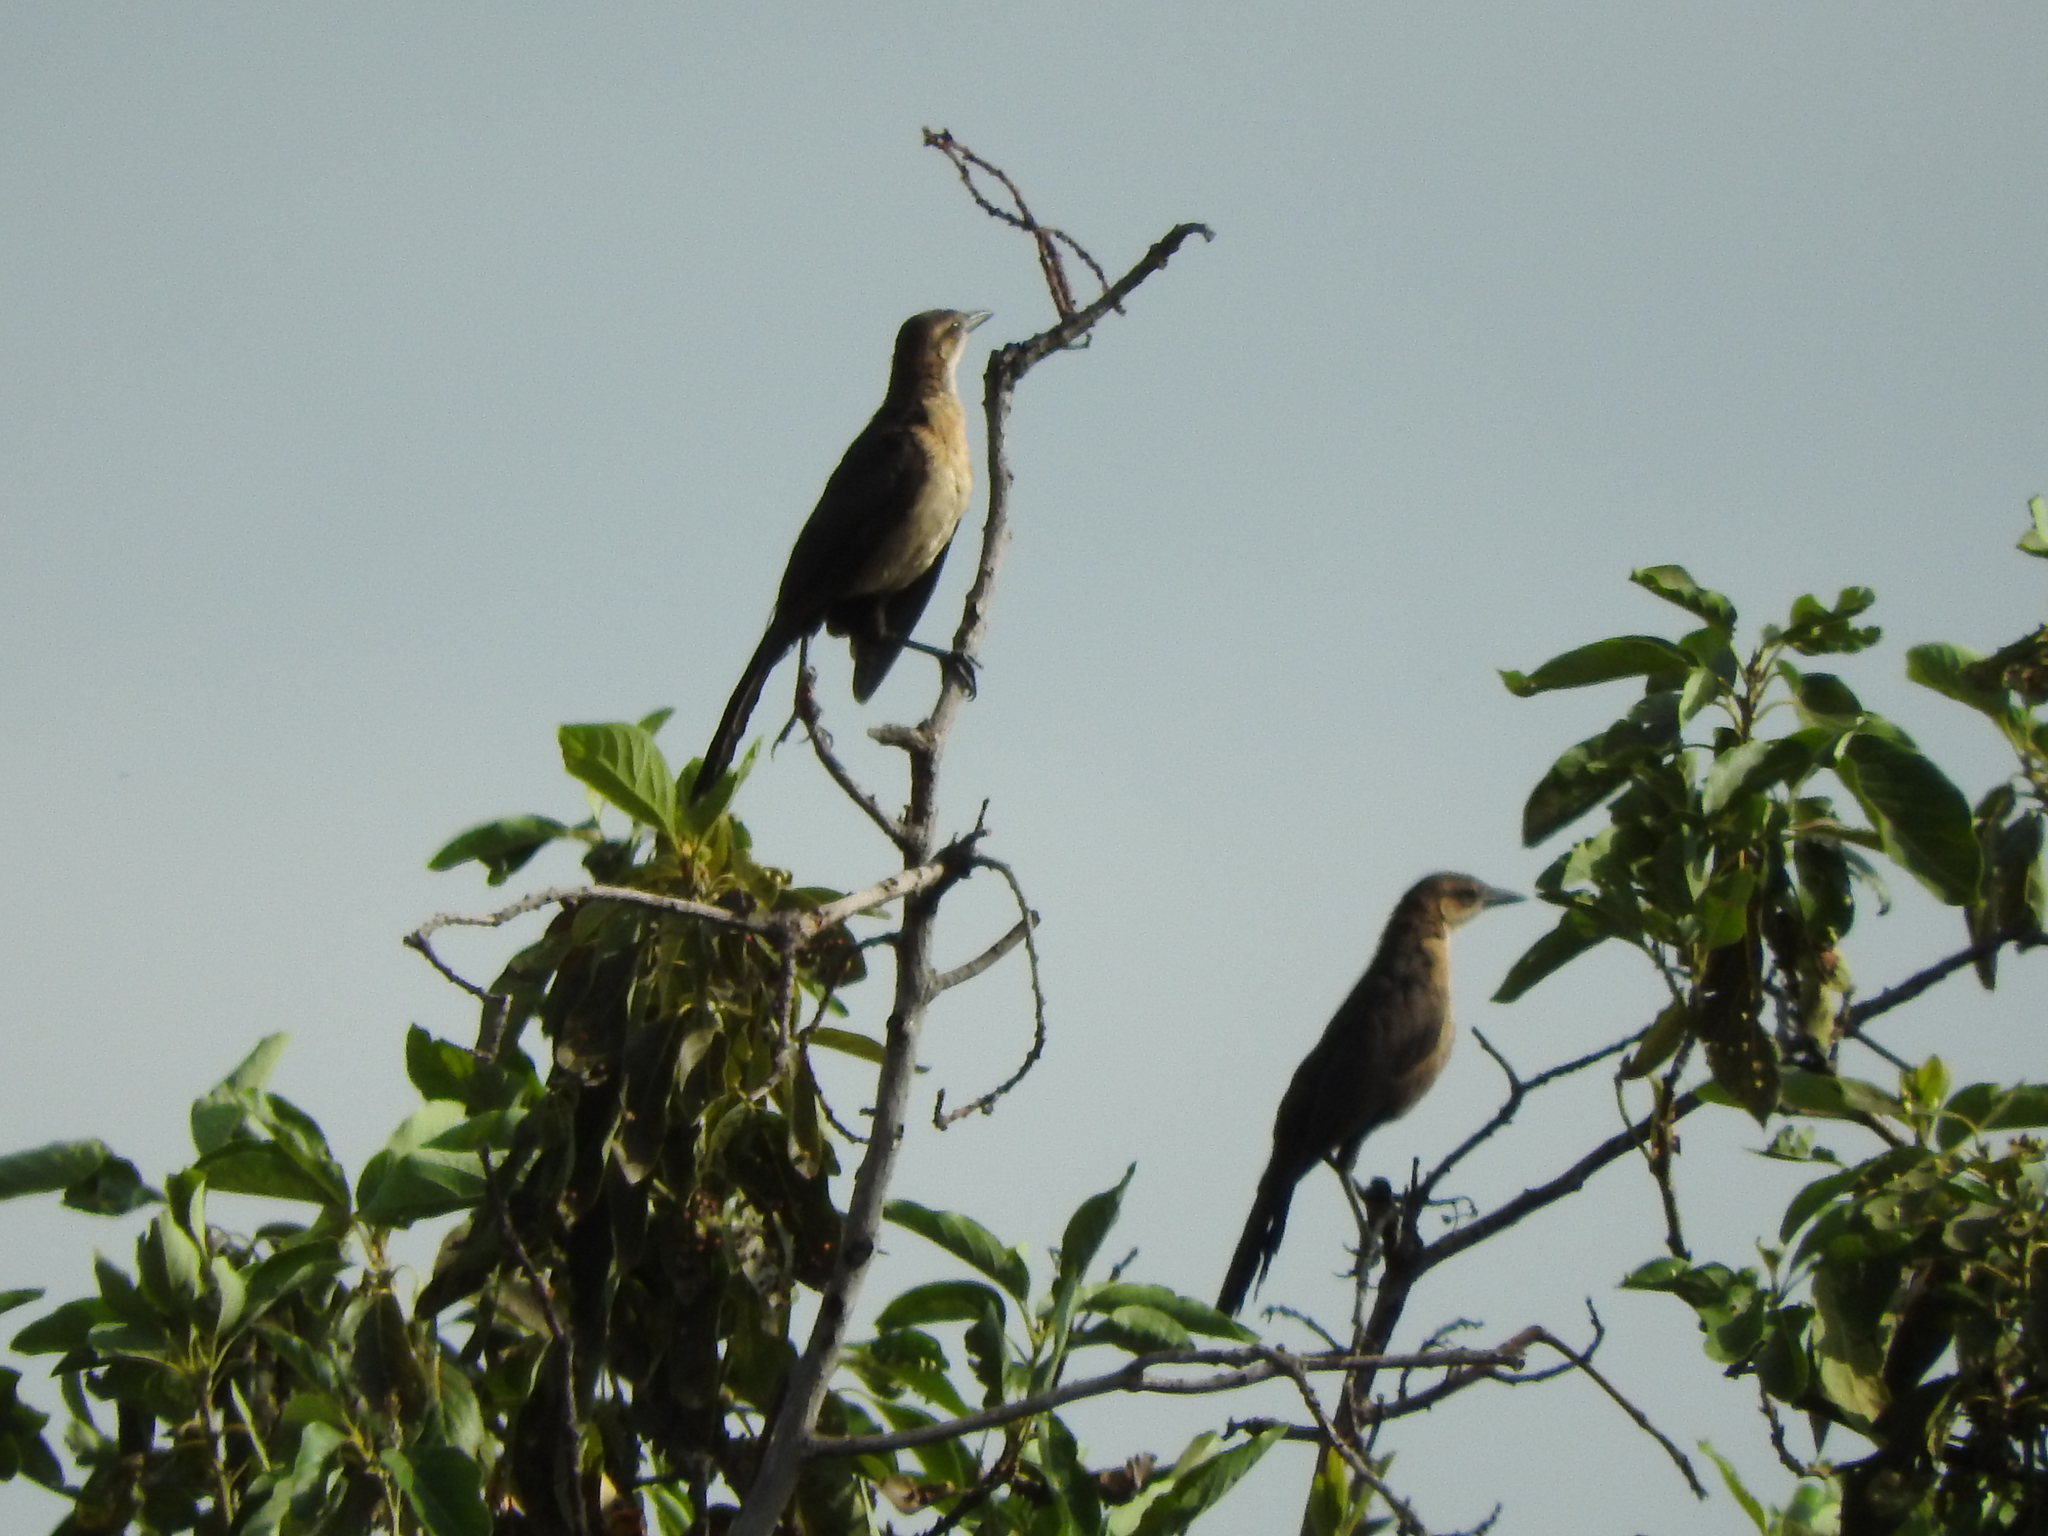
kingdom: Animalia
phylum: Chordata
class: Aves
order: Passeriformes
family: Icteridae
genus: Quiscalus
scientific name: Quiscalus mexicanus
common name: Great-tailed grackle
